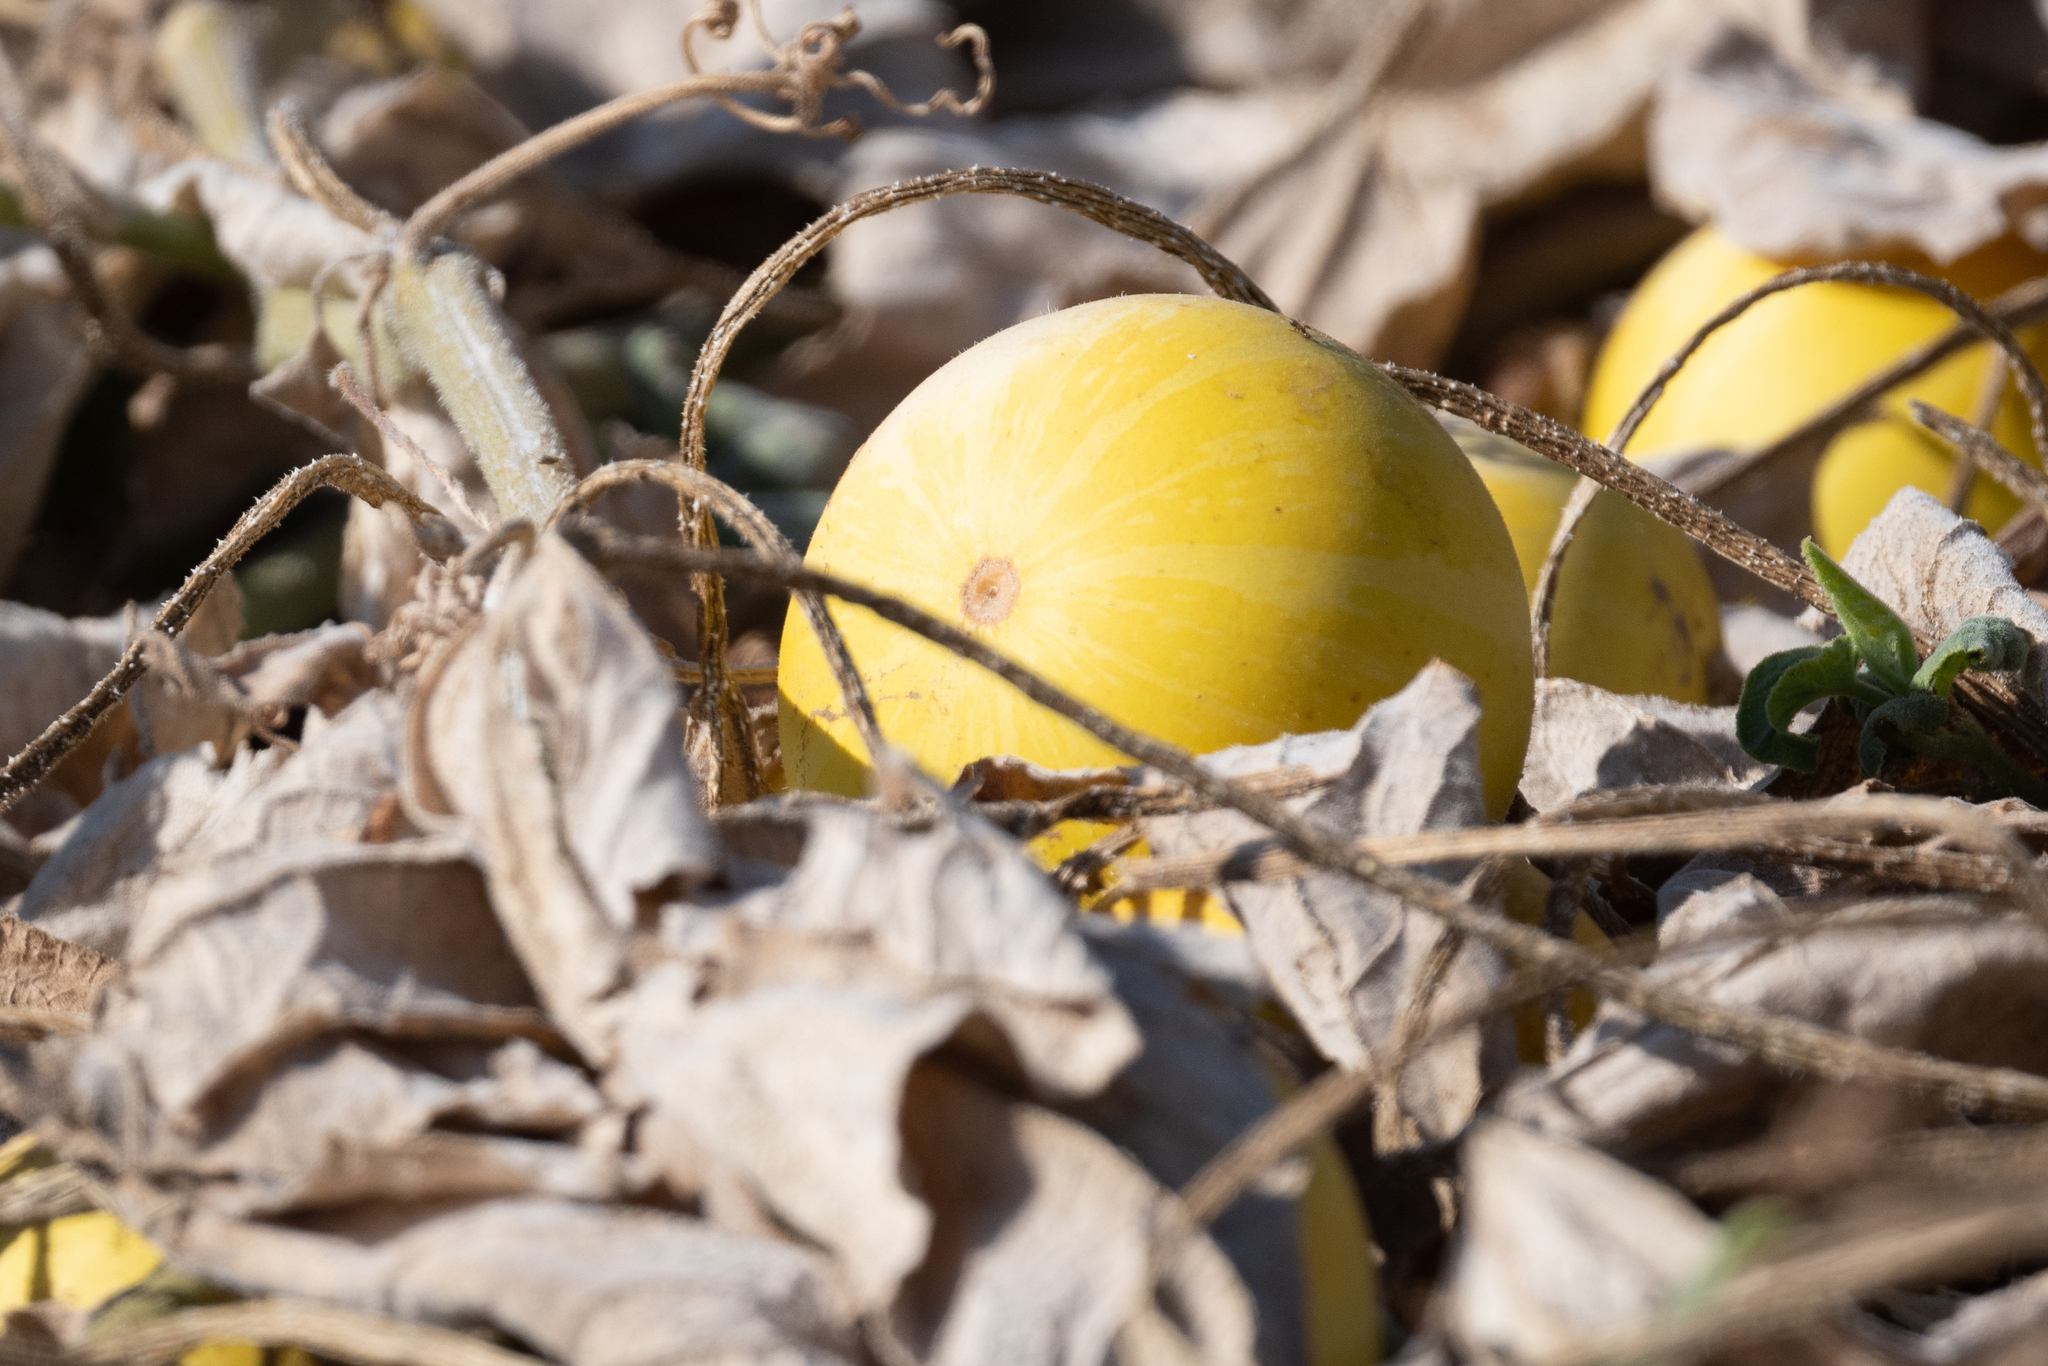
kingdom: Plantae
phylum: Tracheophyta
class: Magnoliopsida
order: Cucurbitales
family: Cucurbitaceae
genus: Cucurbita
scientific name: Cucurbita foetidissima
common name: Buffalo gourd
